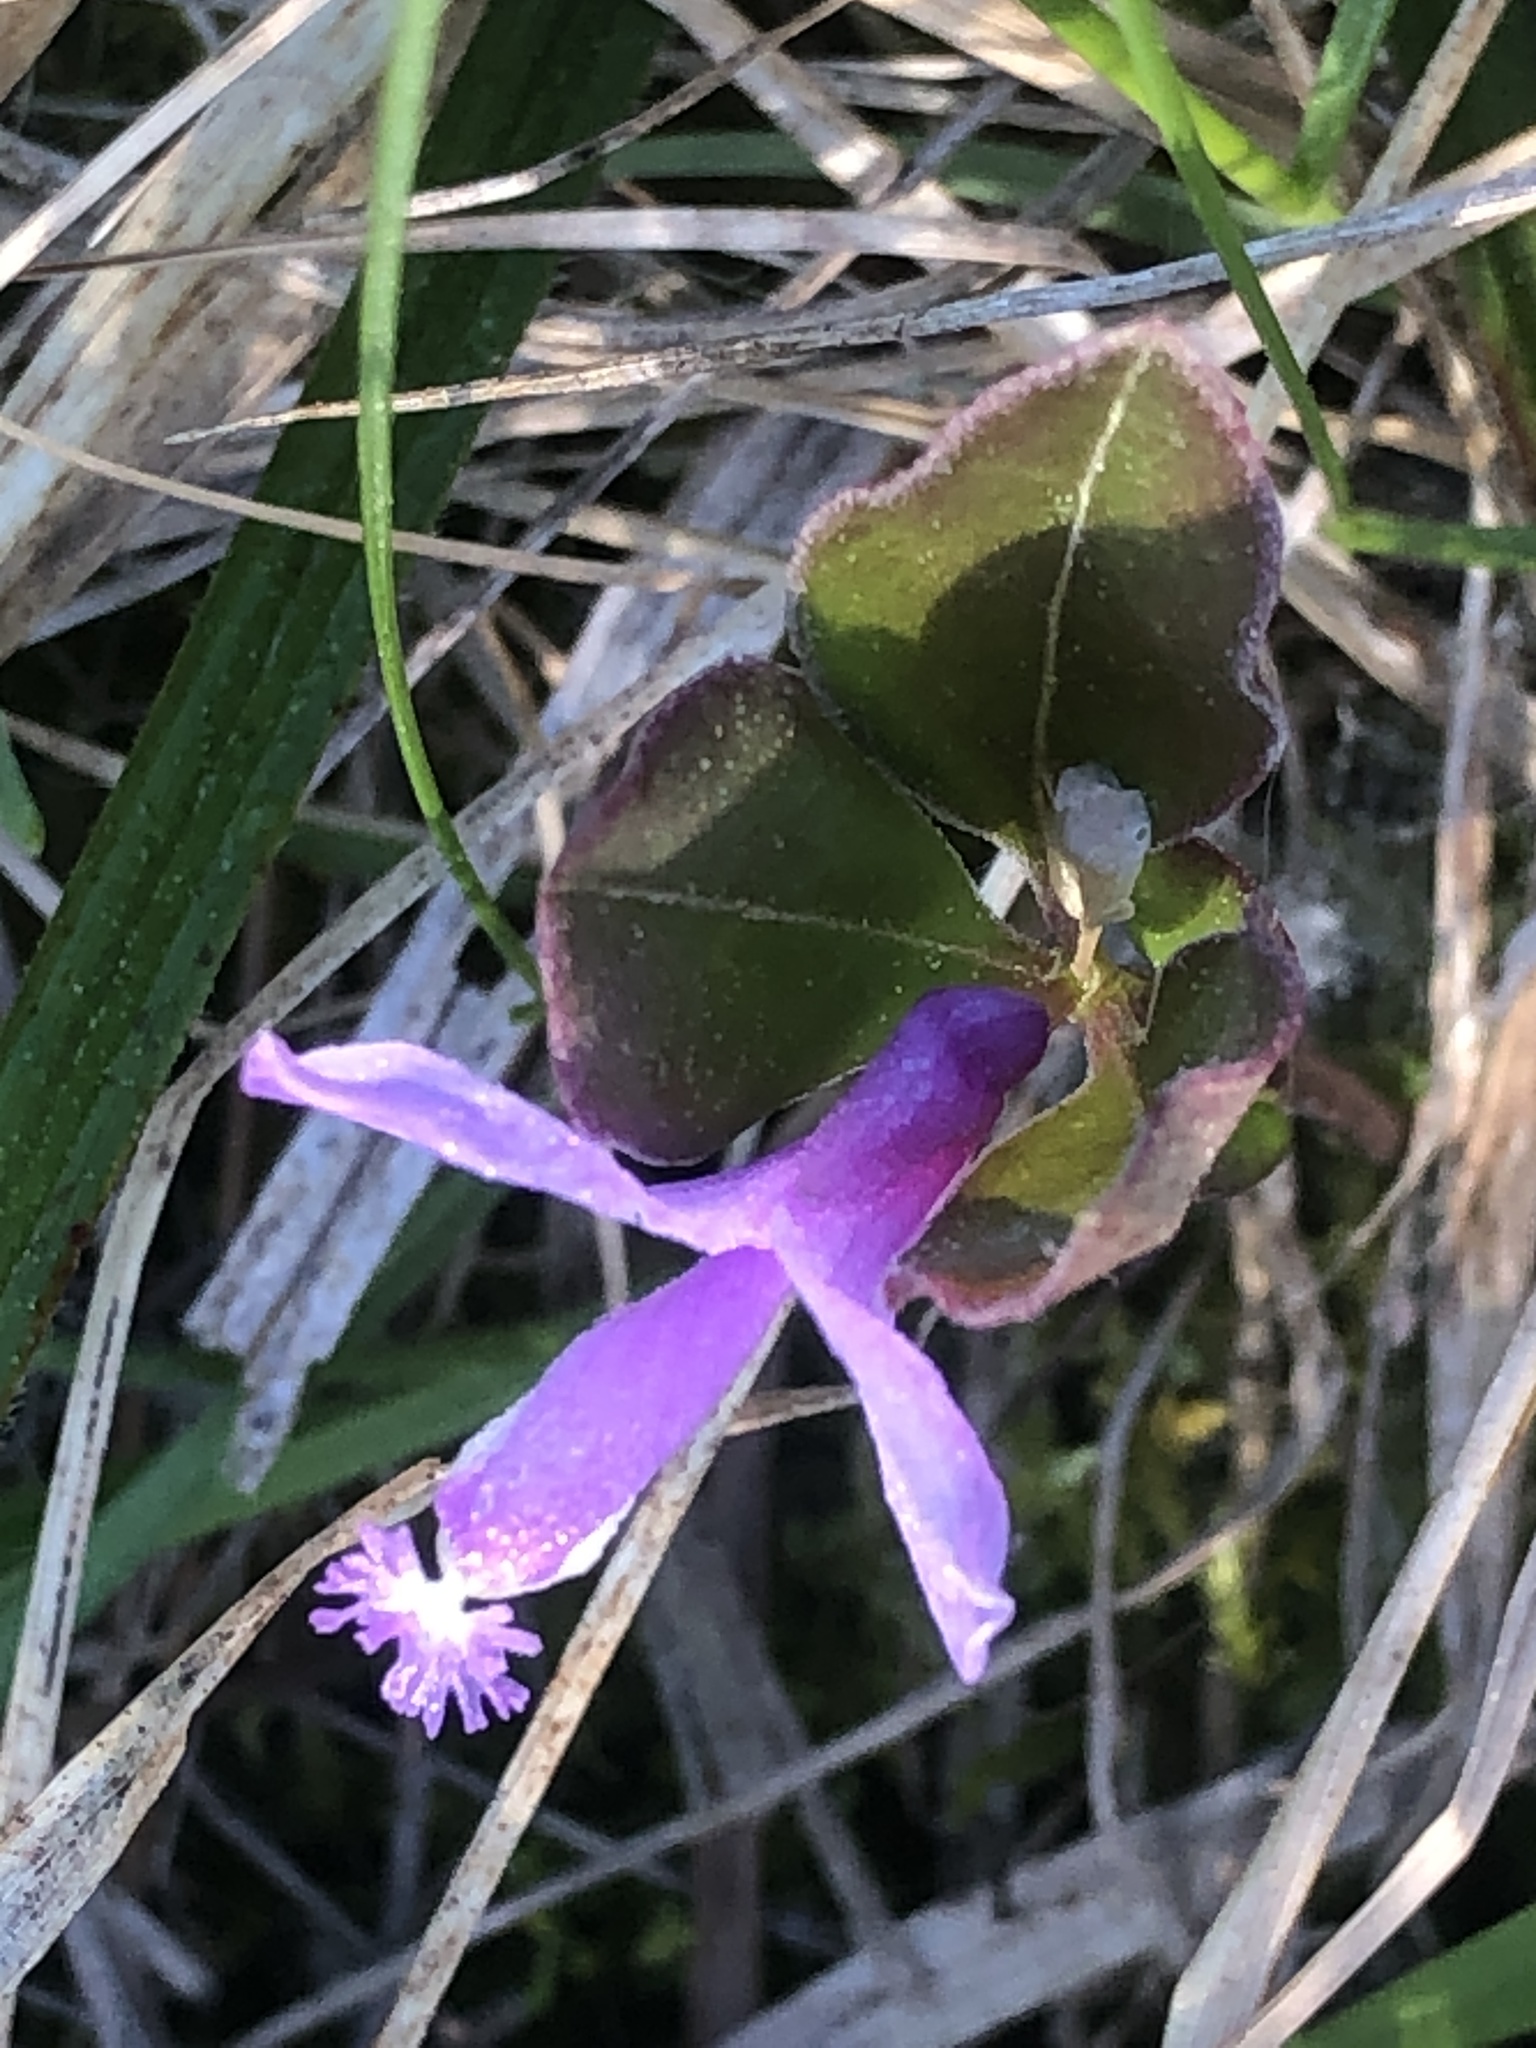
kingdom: Plantae
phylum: Tracheophyta
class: Magnoliopsida
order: Fabales
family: Polygalaceae
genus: Polygaloides
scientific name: Polygaloides paucifolia
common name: Bird-on-the-wing
